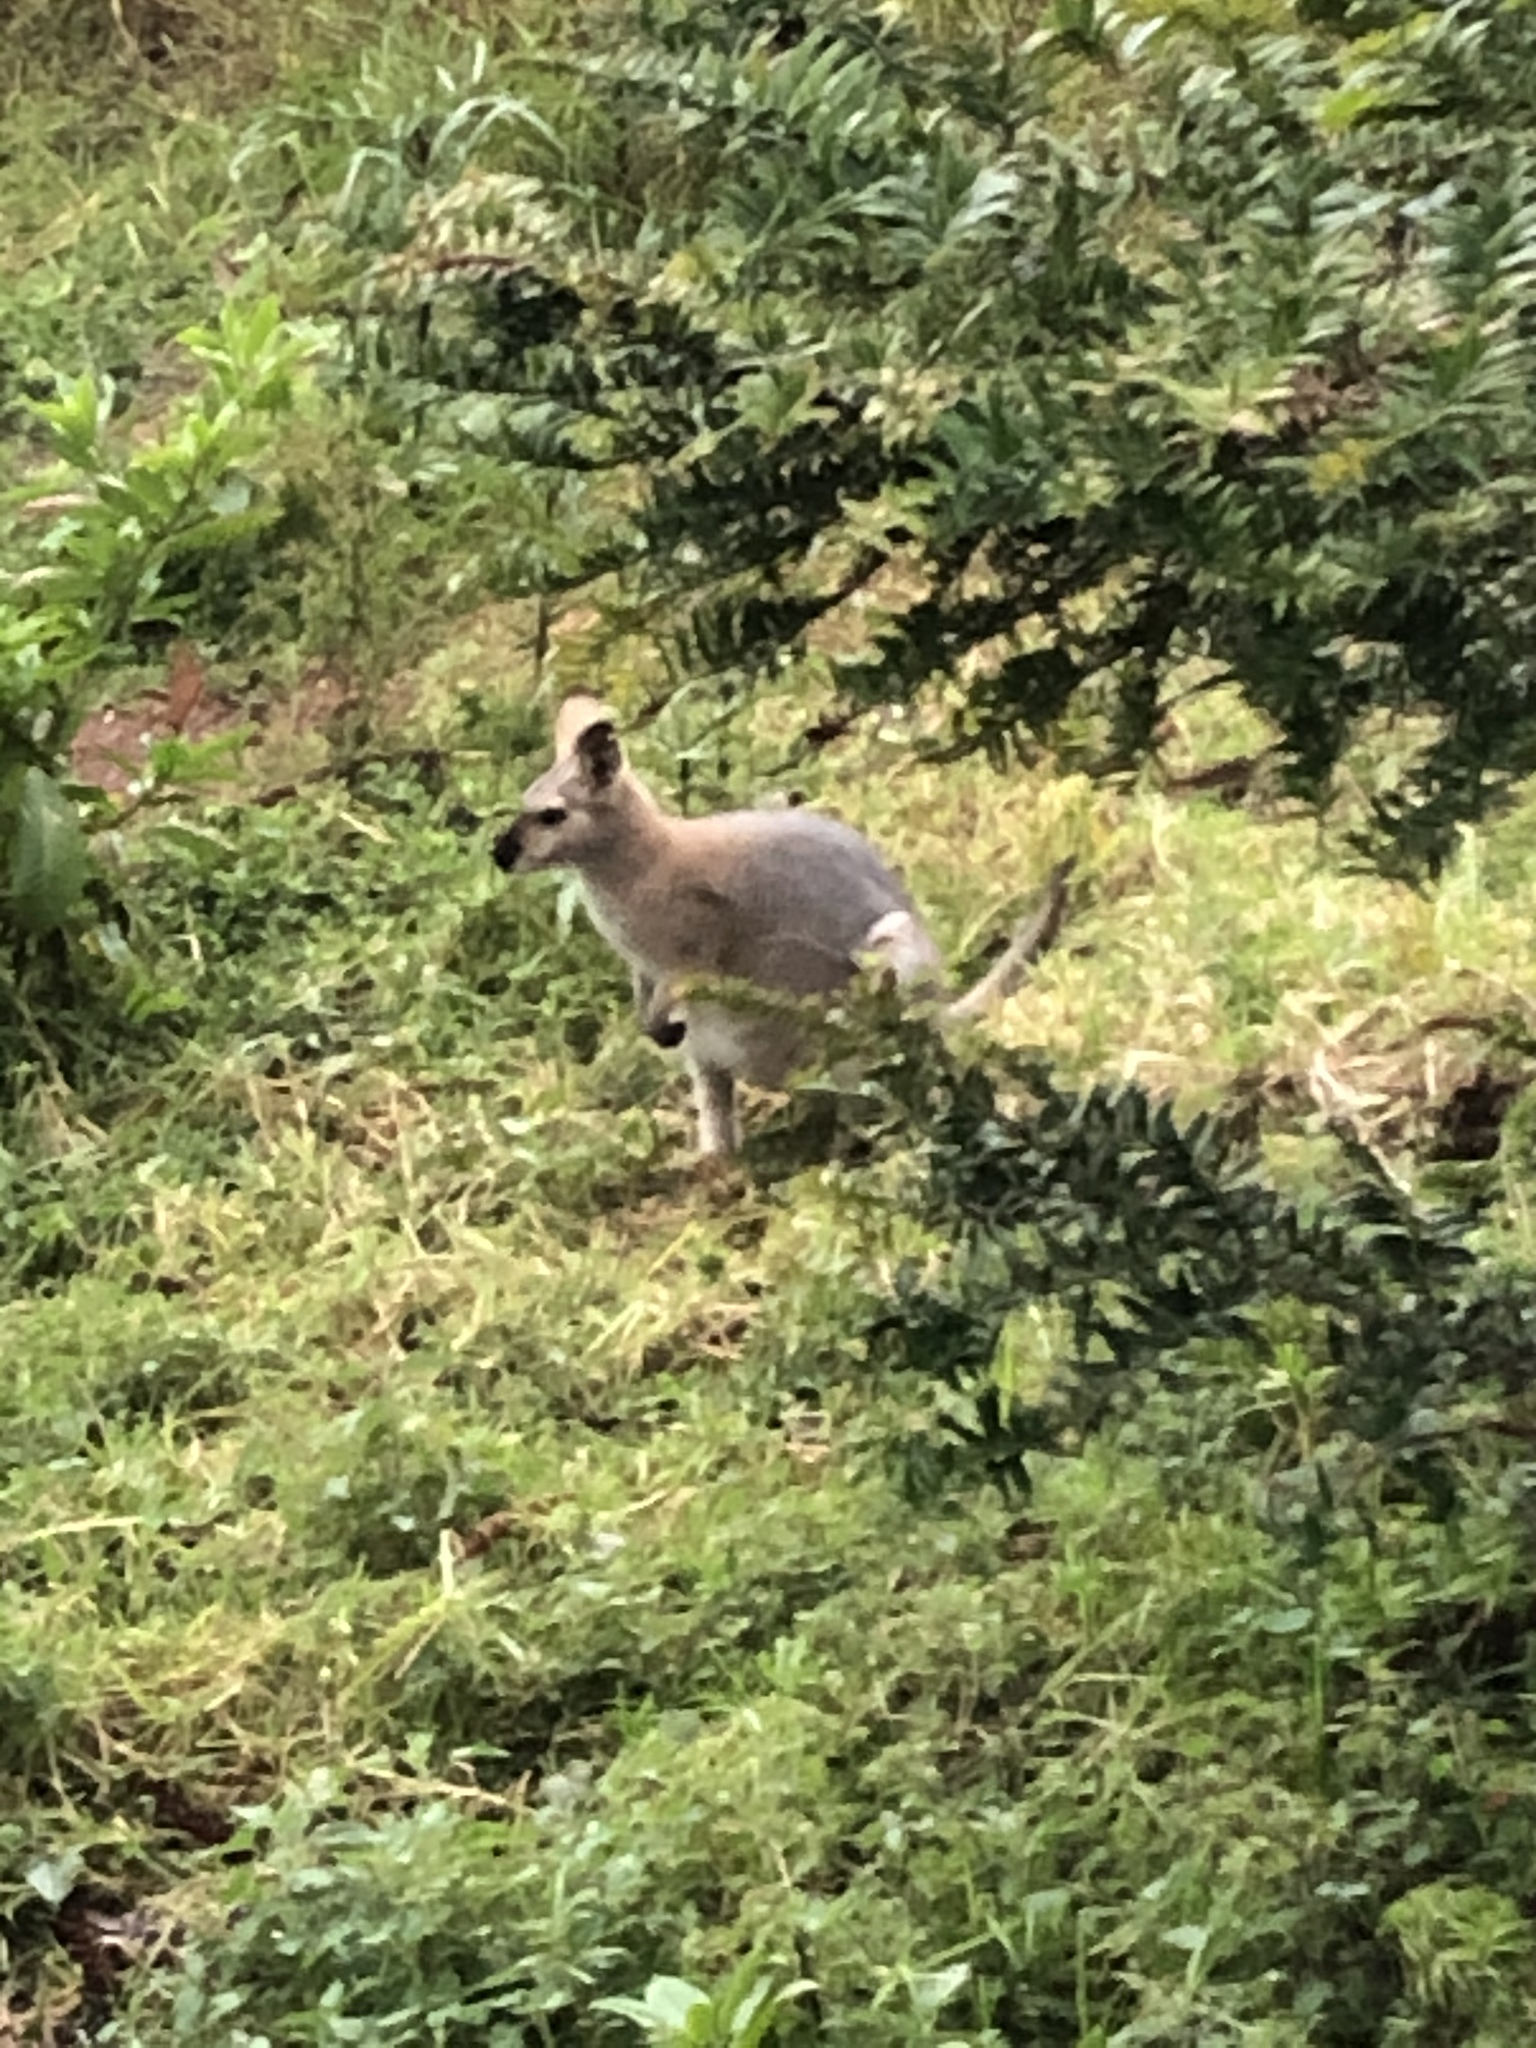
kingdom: Animalia
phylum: Chordata
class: Mammalia
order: Diprotodontia
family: Macropodidae
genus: Notamacropus
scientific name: Notamacropus rufogriseus
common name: Red-necked wallaby
